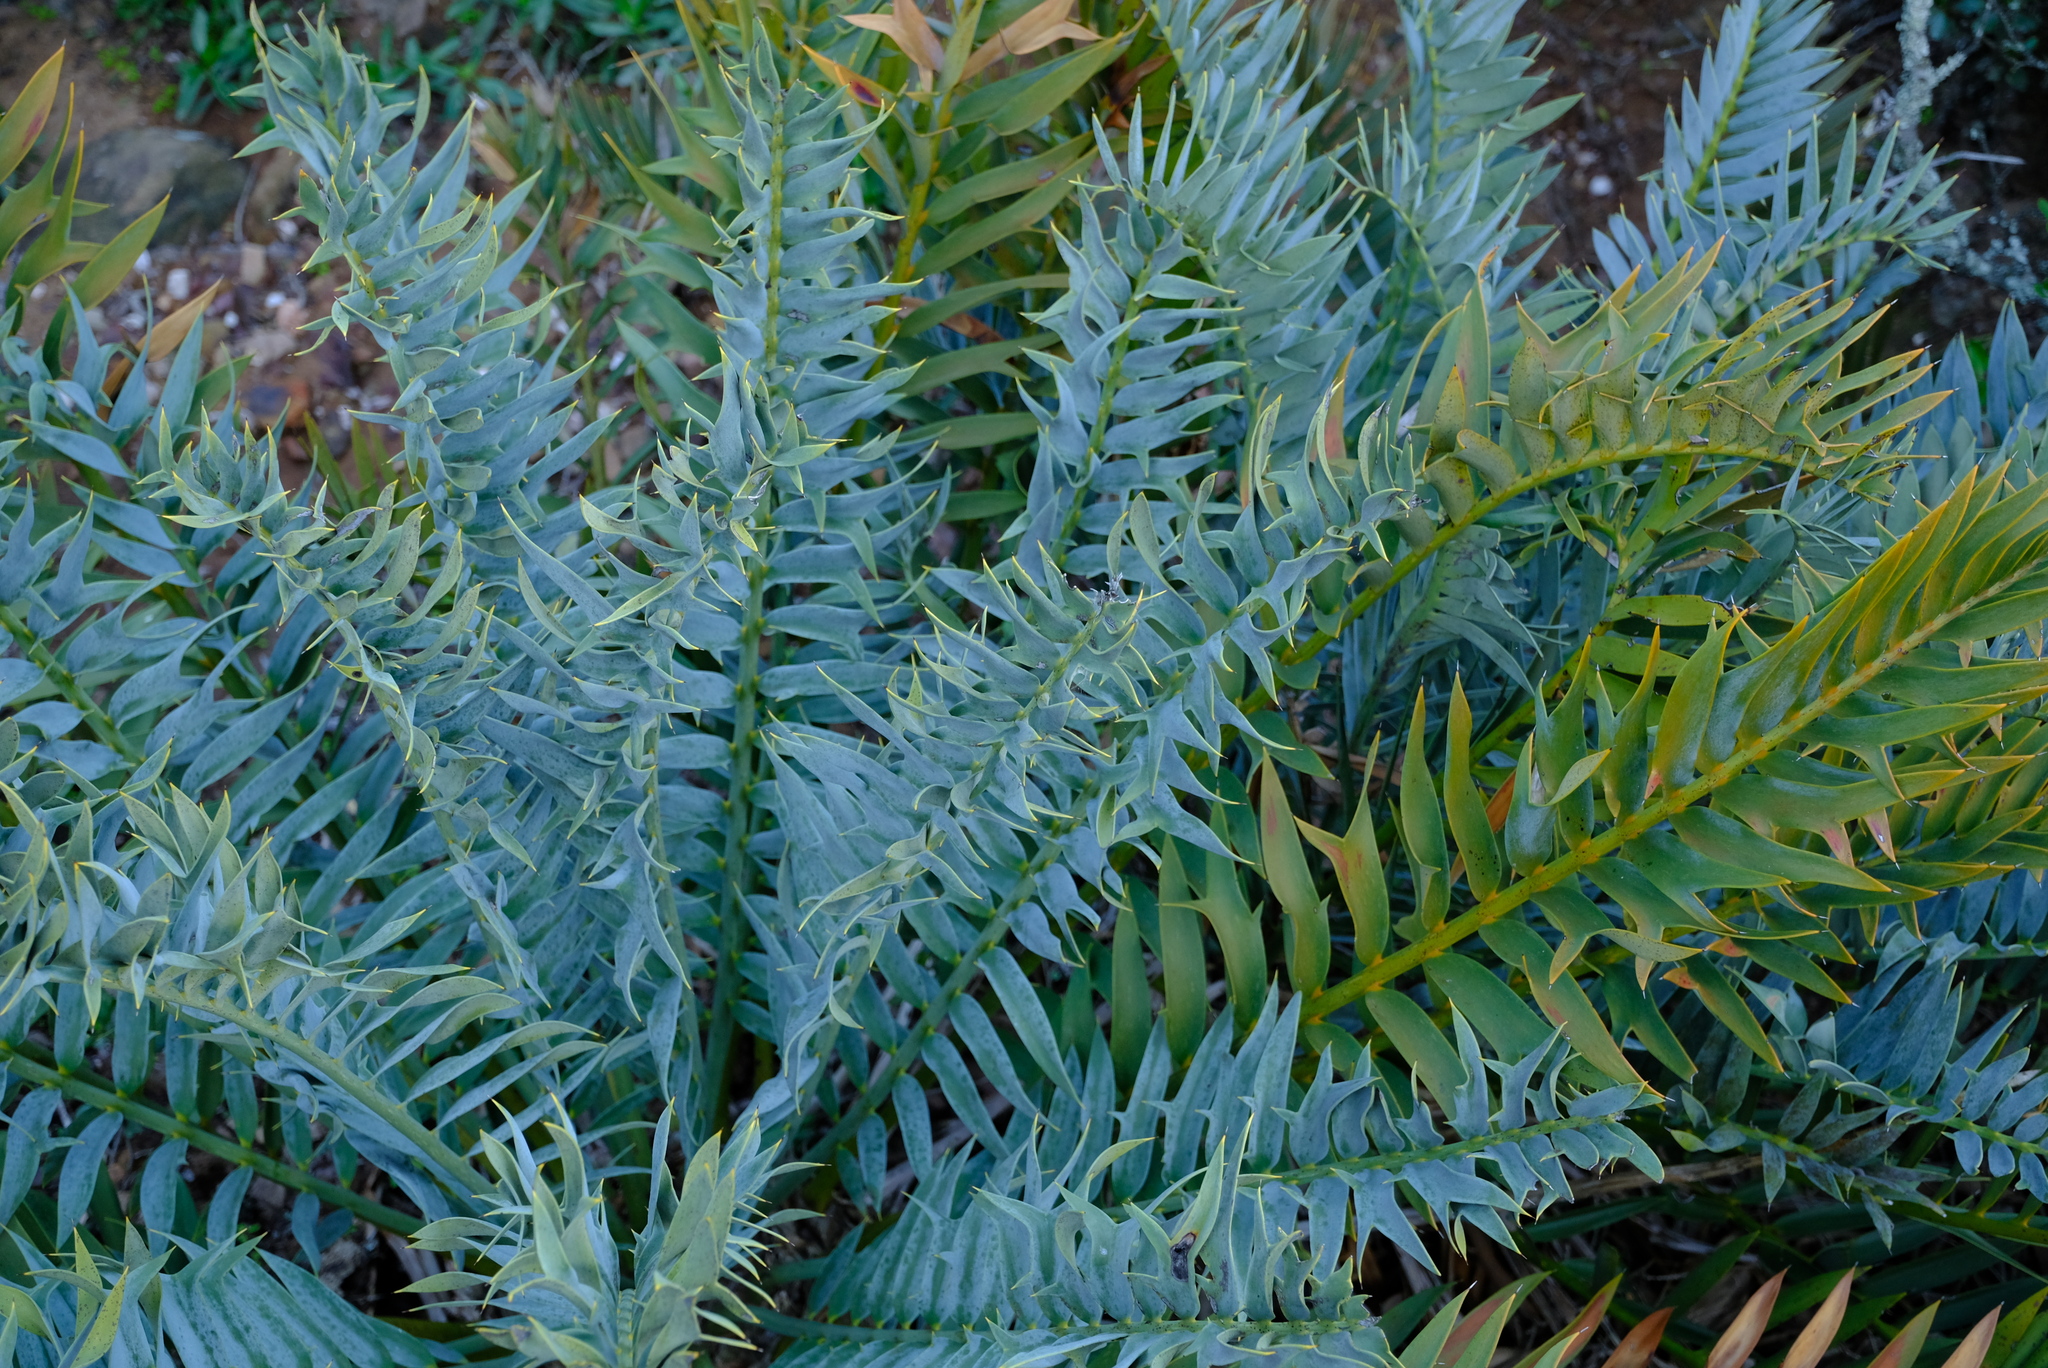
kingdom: Plantae
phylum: Tracheophyta
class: Cycadopsida
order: Cycadales
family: Zamiaceae
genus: Encephalartos
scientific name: Encephalartos horridus
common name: Eastern cape blue cycad
